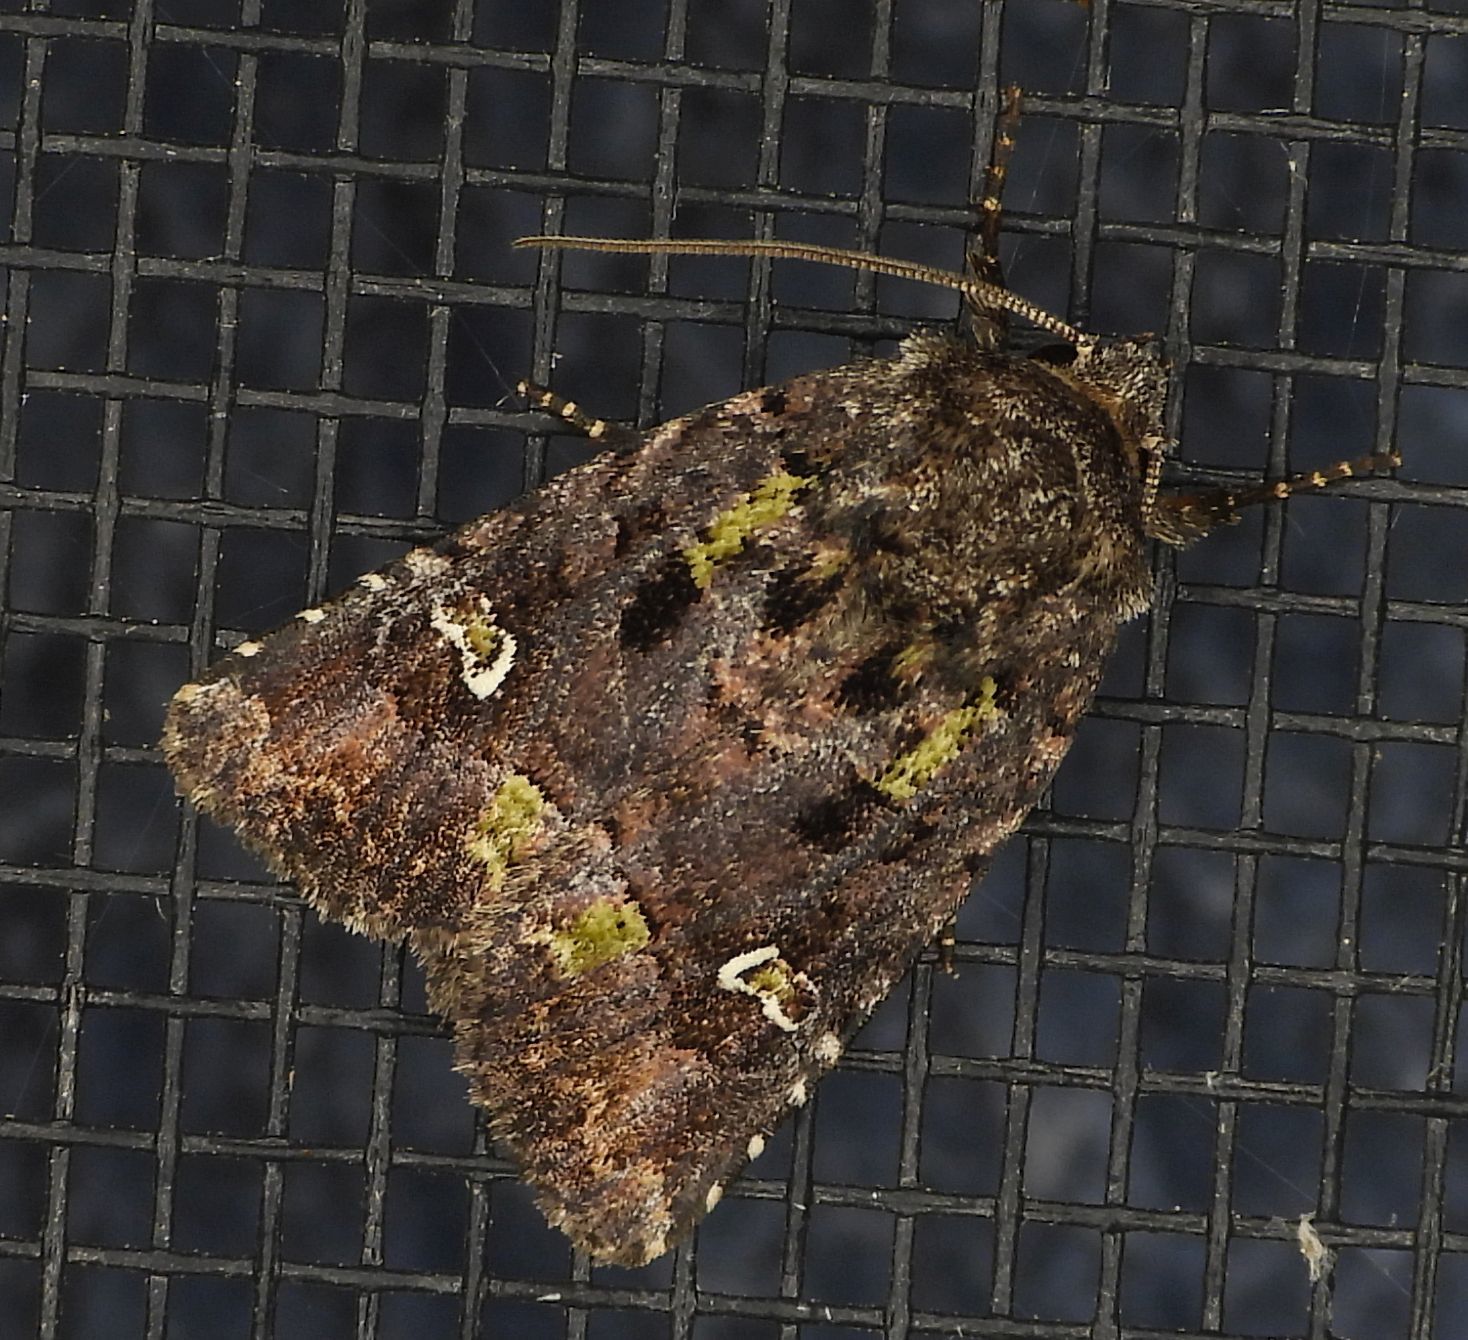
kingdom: Animalia
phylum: Arthropoda
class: Insecta
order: Lepidoptera
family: Noctuidae
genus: Lacinipolia
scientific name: Lacinipolia renigera
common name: Kidney-spotted minor
